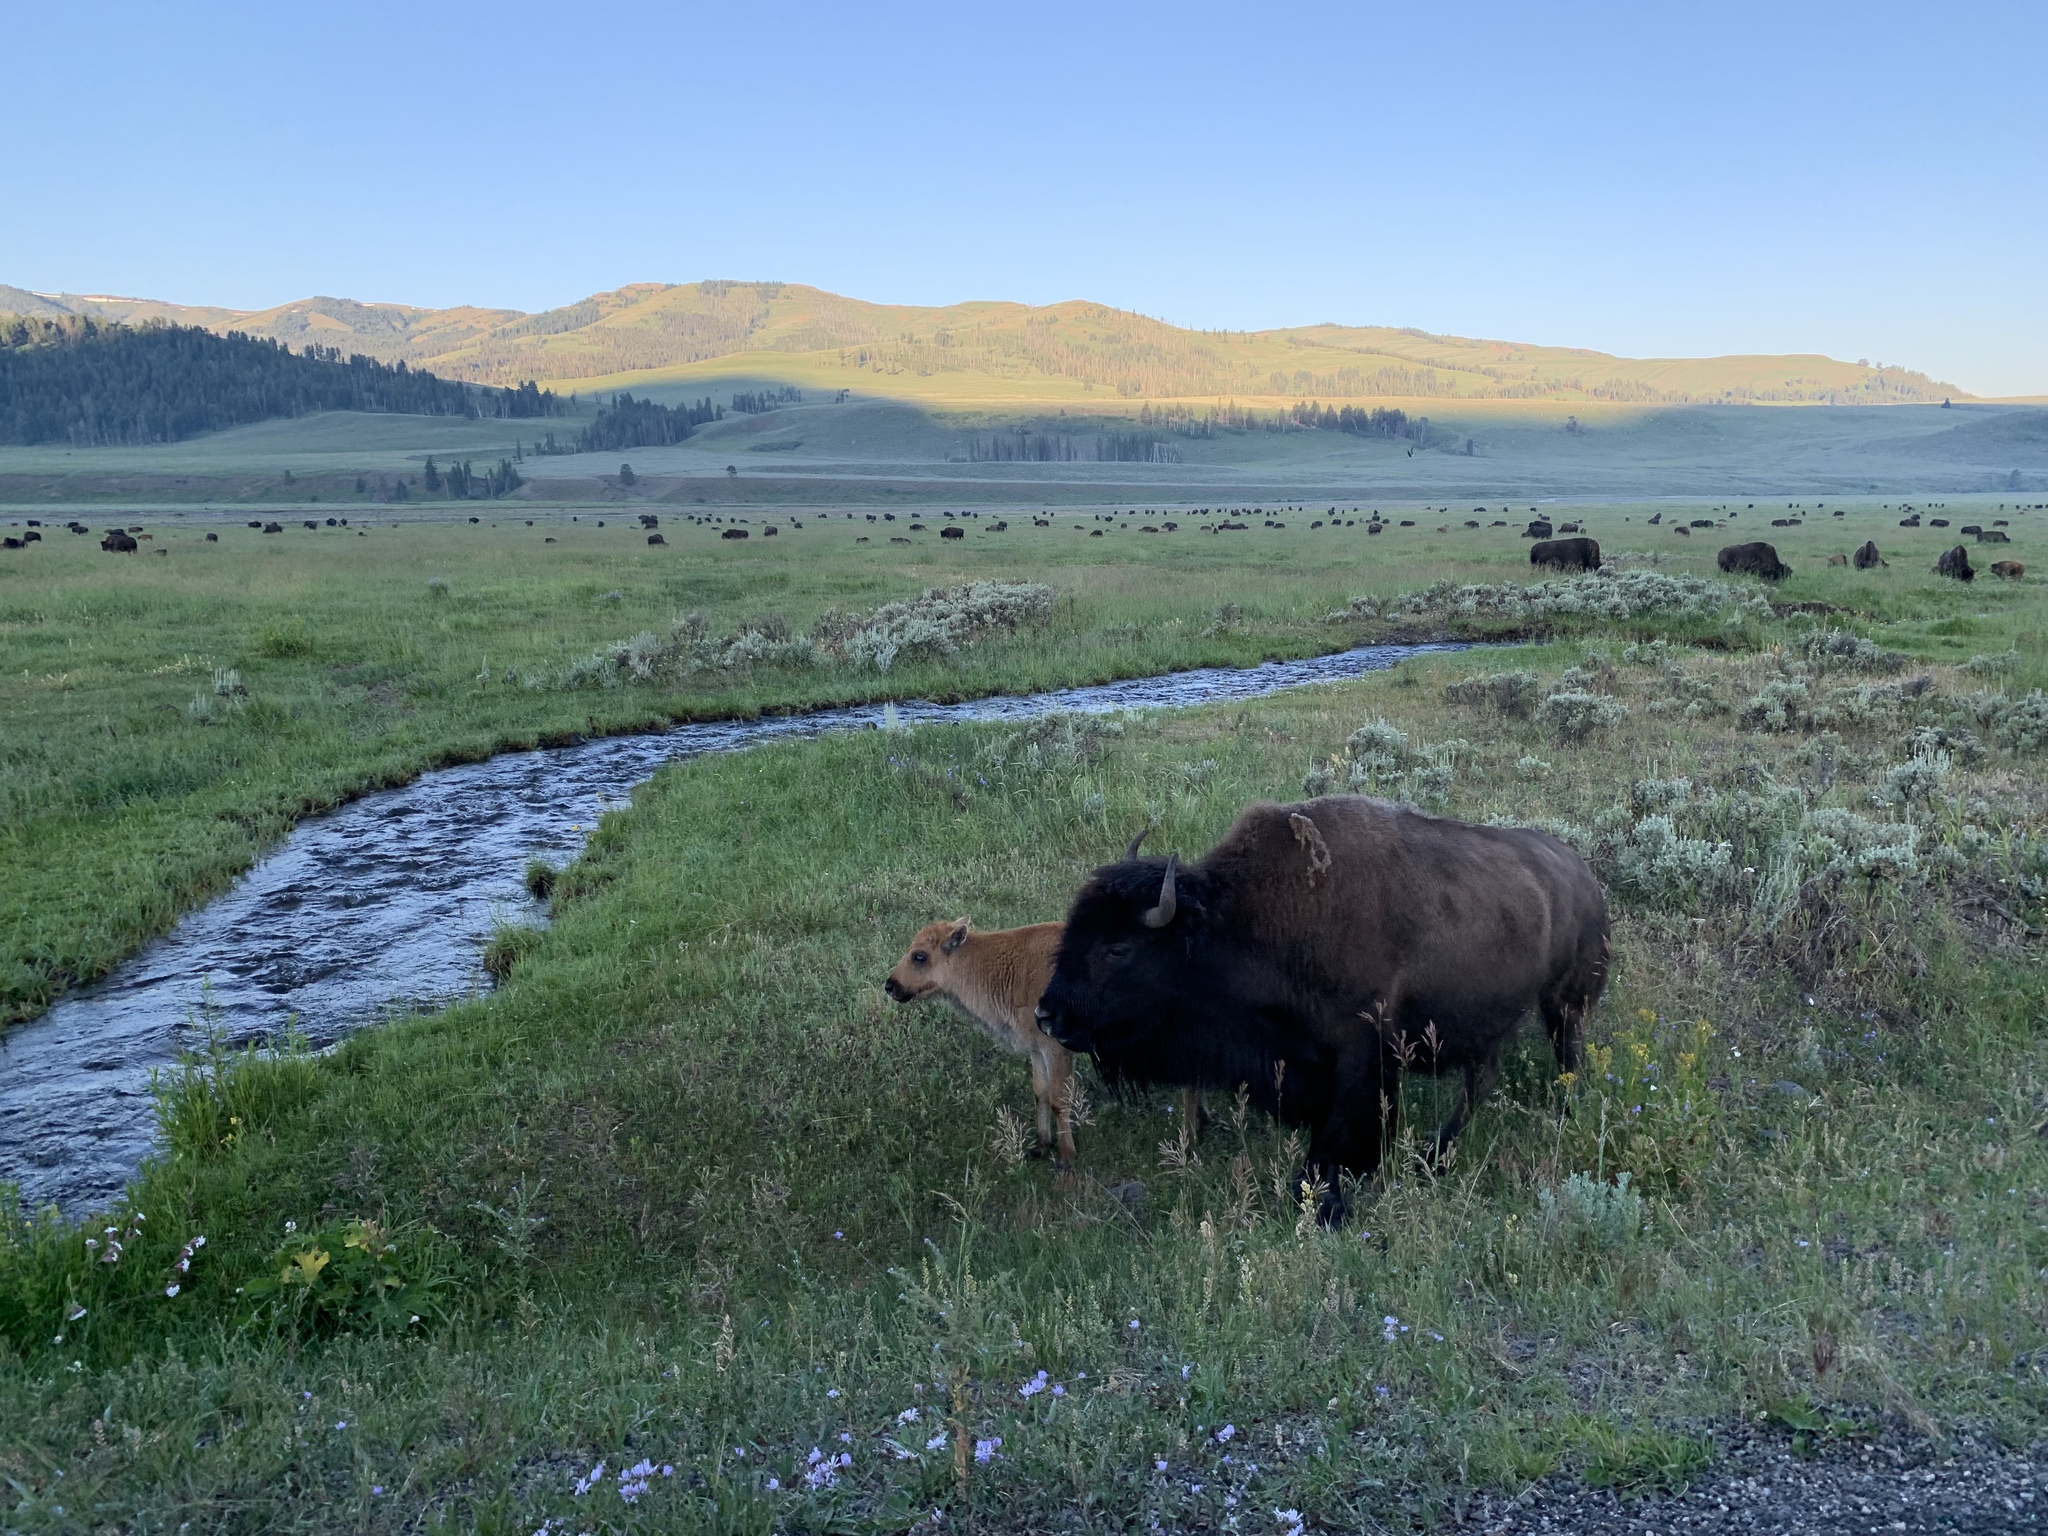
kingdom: Animalia
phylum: Chordata
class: Mammalia
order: Artiodactyla
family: Bovidae
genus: Bison
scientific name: Bison bison
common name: American bison
